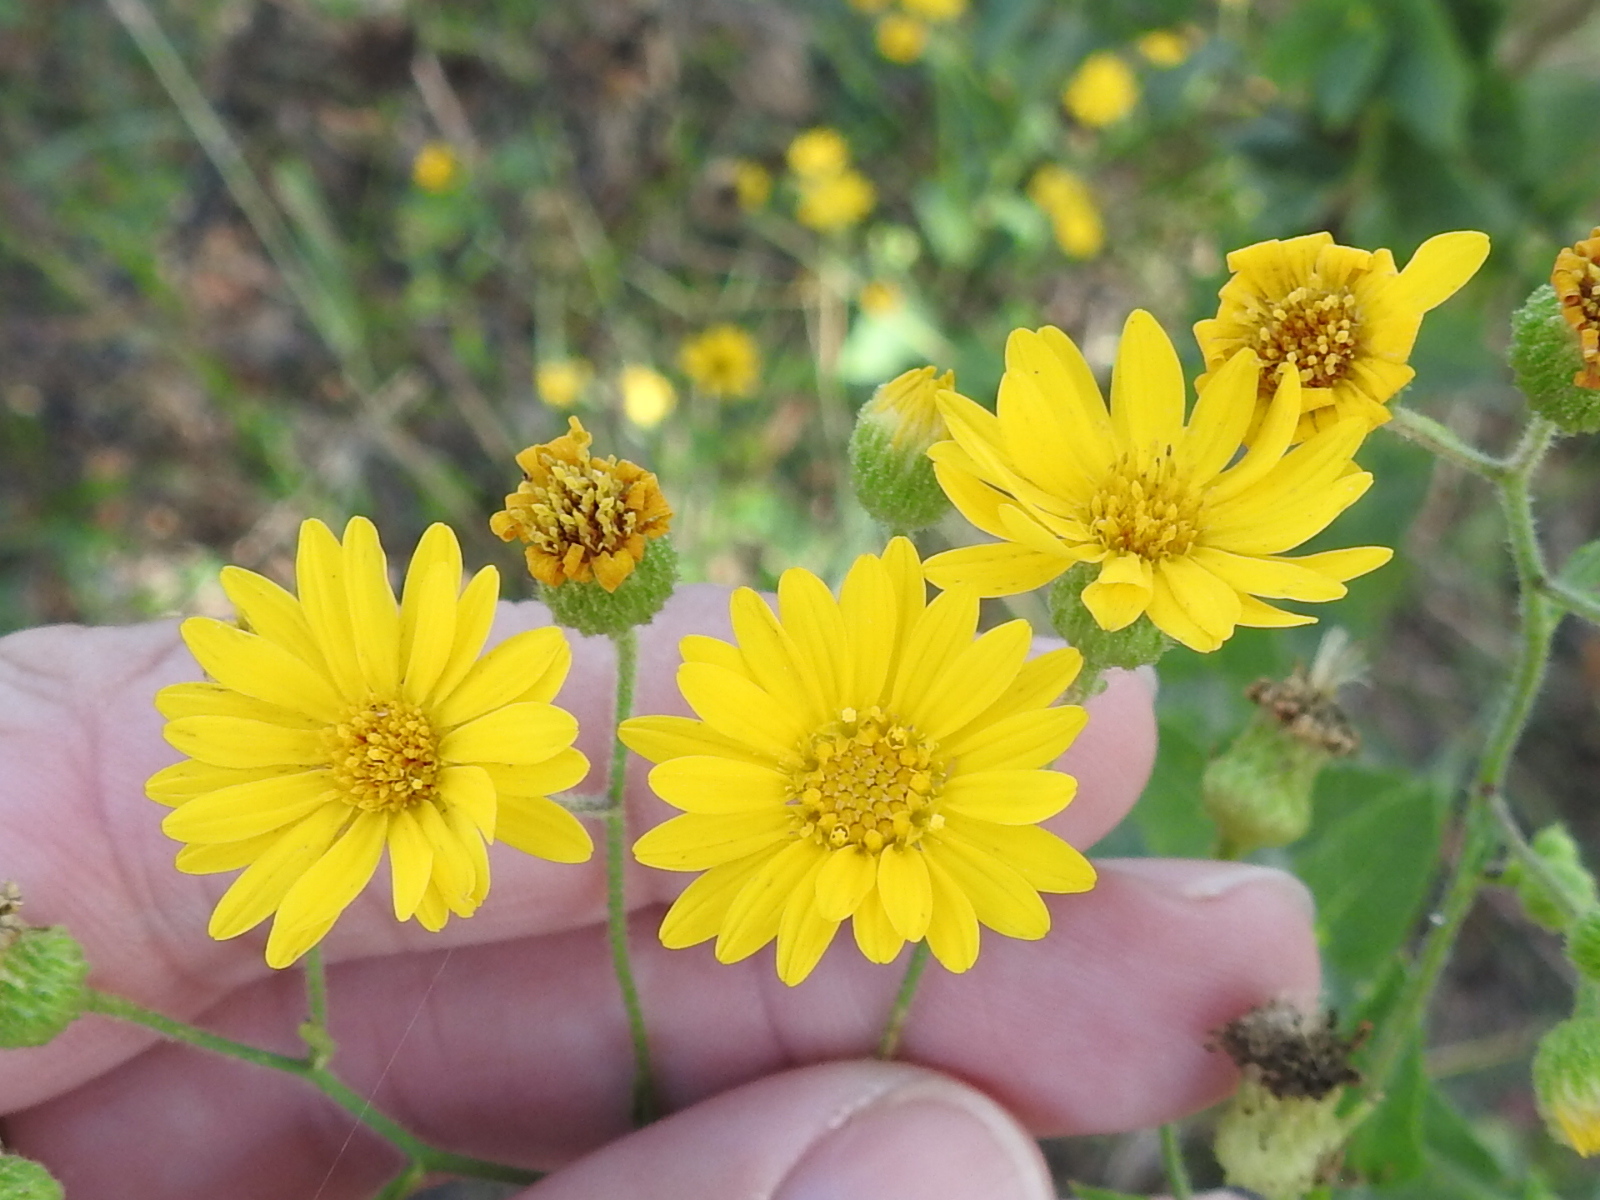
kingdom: Plantae
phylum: Tracheophyta
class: Magnoliopsida
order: Asterales
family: Asteraceae
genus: Heterotheca
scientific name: Heterotheca subaxillaris
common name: Camphorweed
